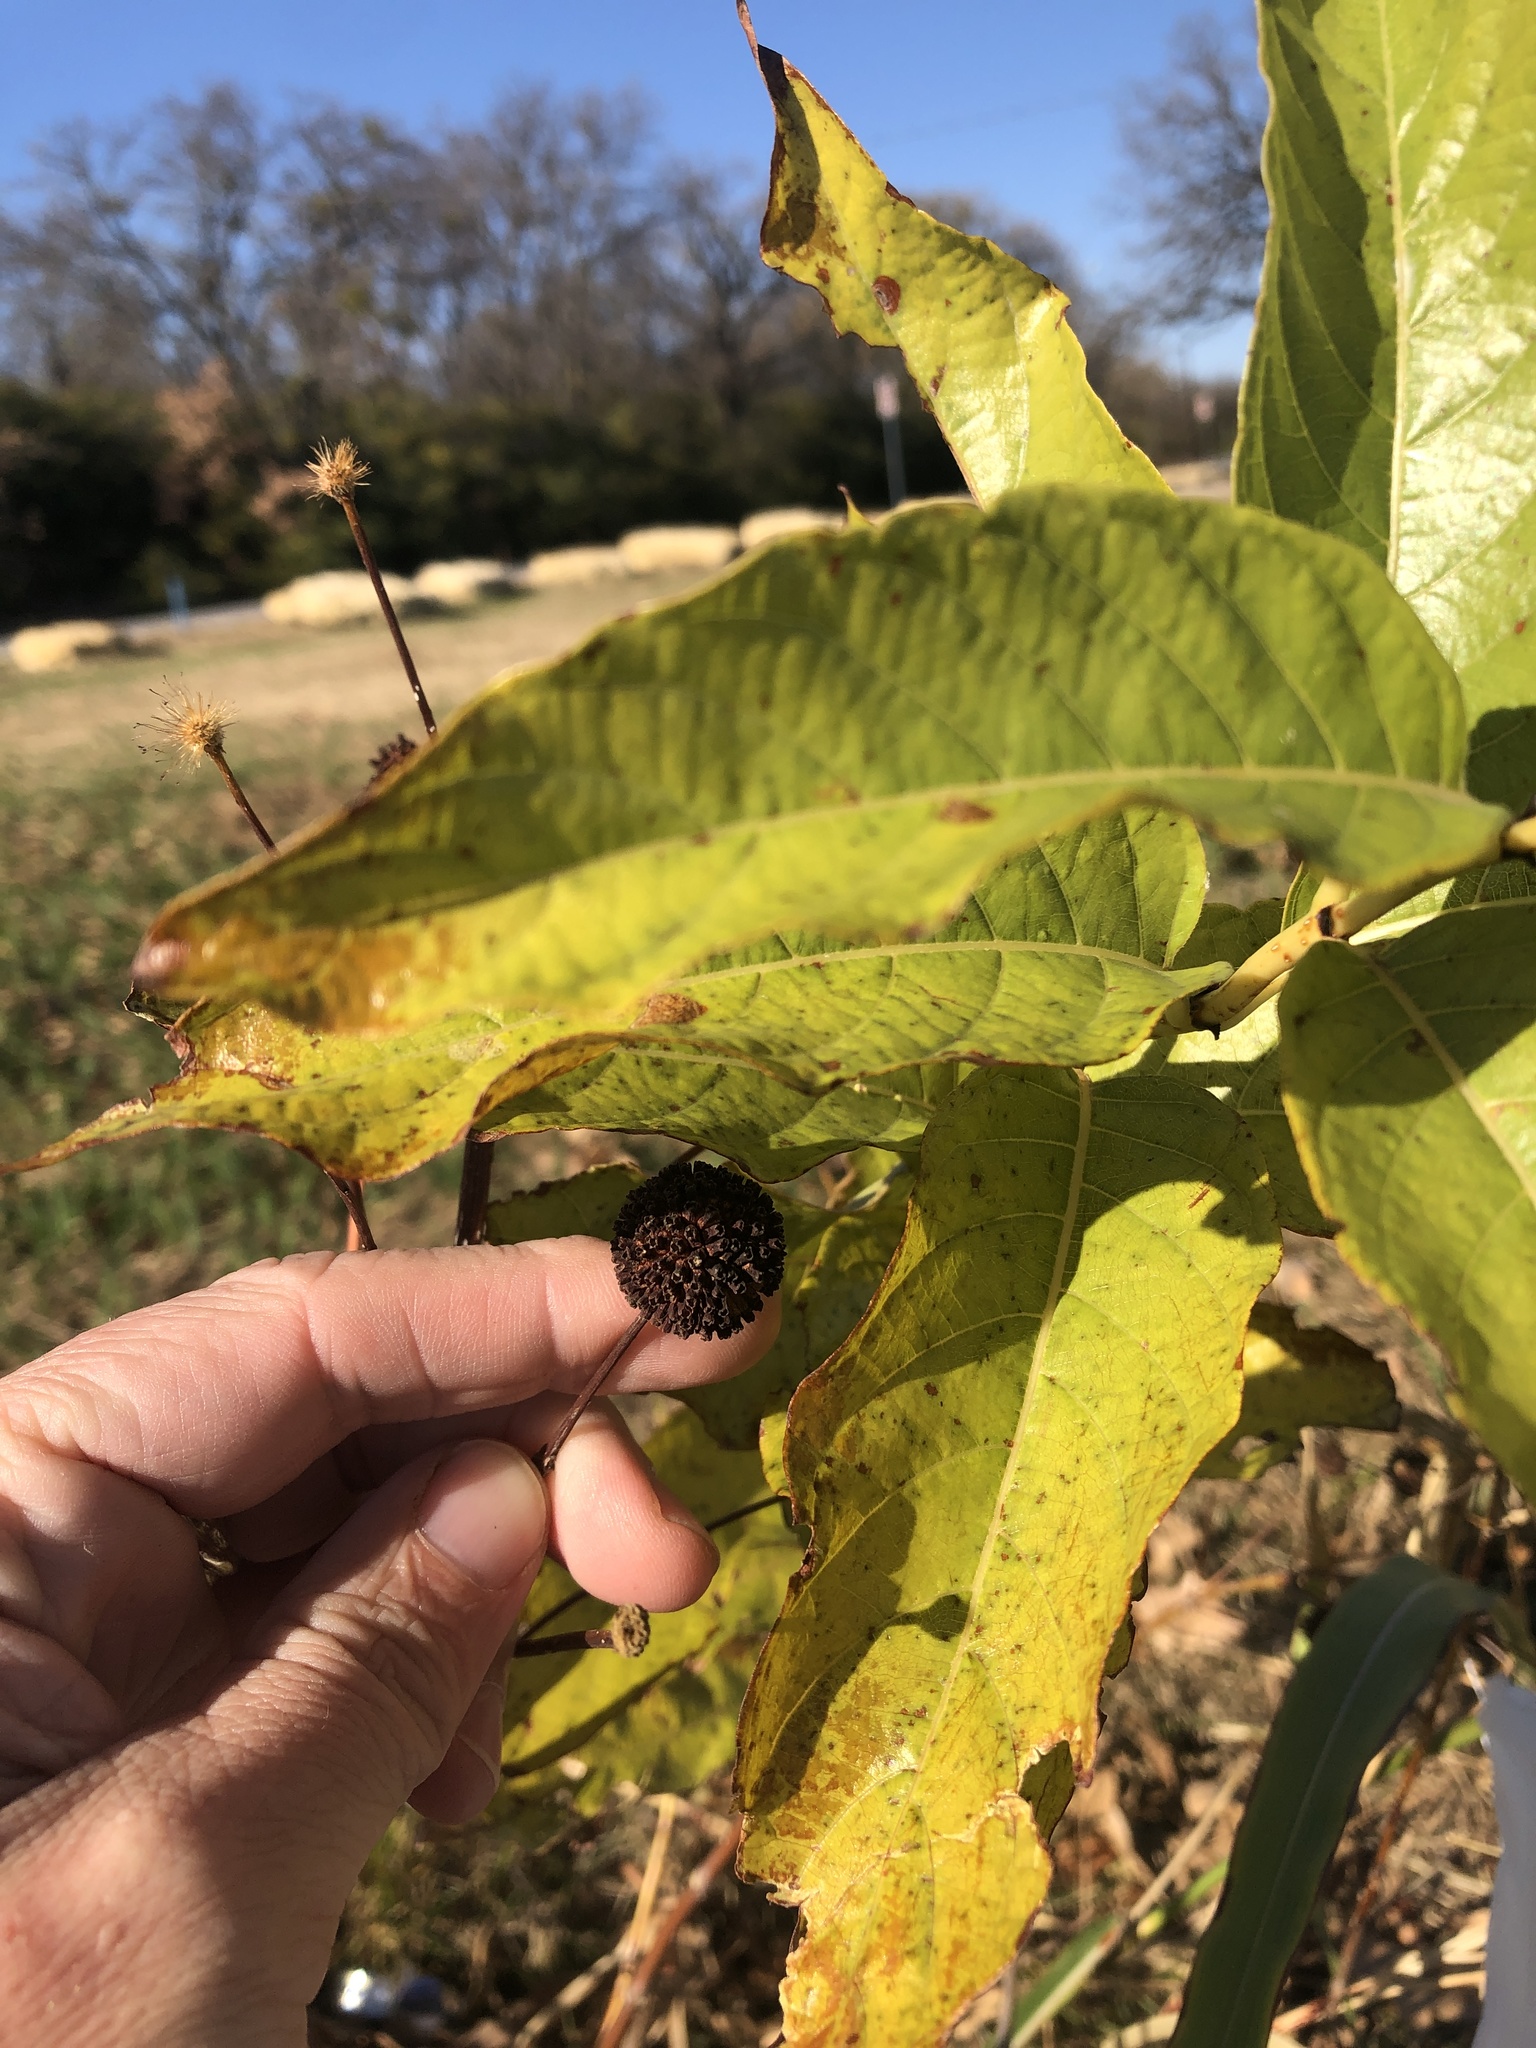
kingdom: Plantae
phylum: Tracheophyta
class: Magnoliopsida
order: Gentianales
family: Rubiaceae
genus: Cephalanthus
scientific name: Cephalanthus occidentalis
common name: Button-willow
